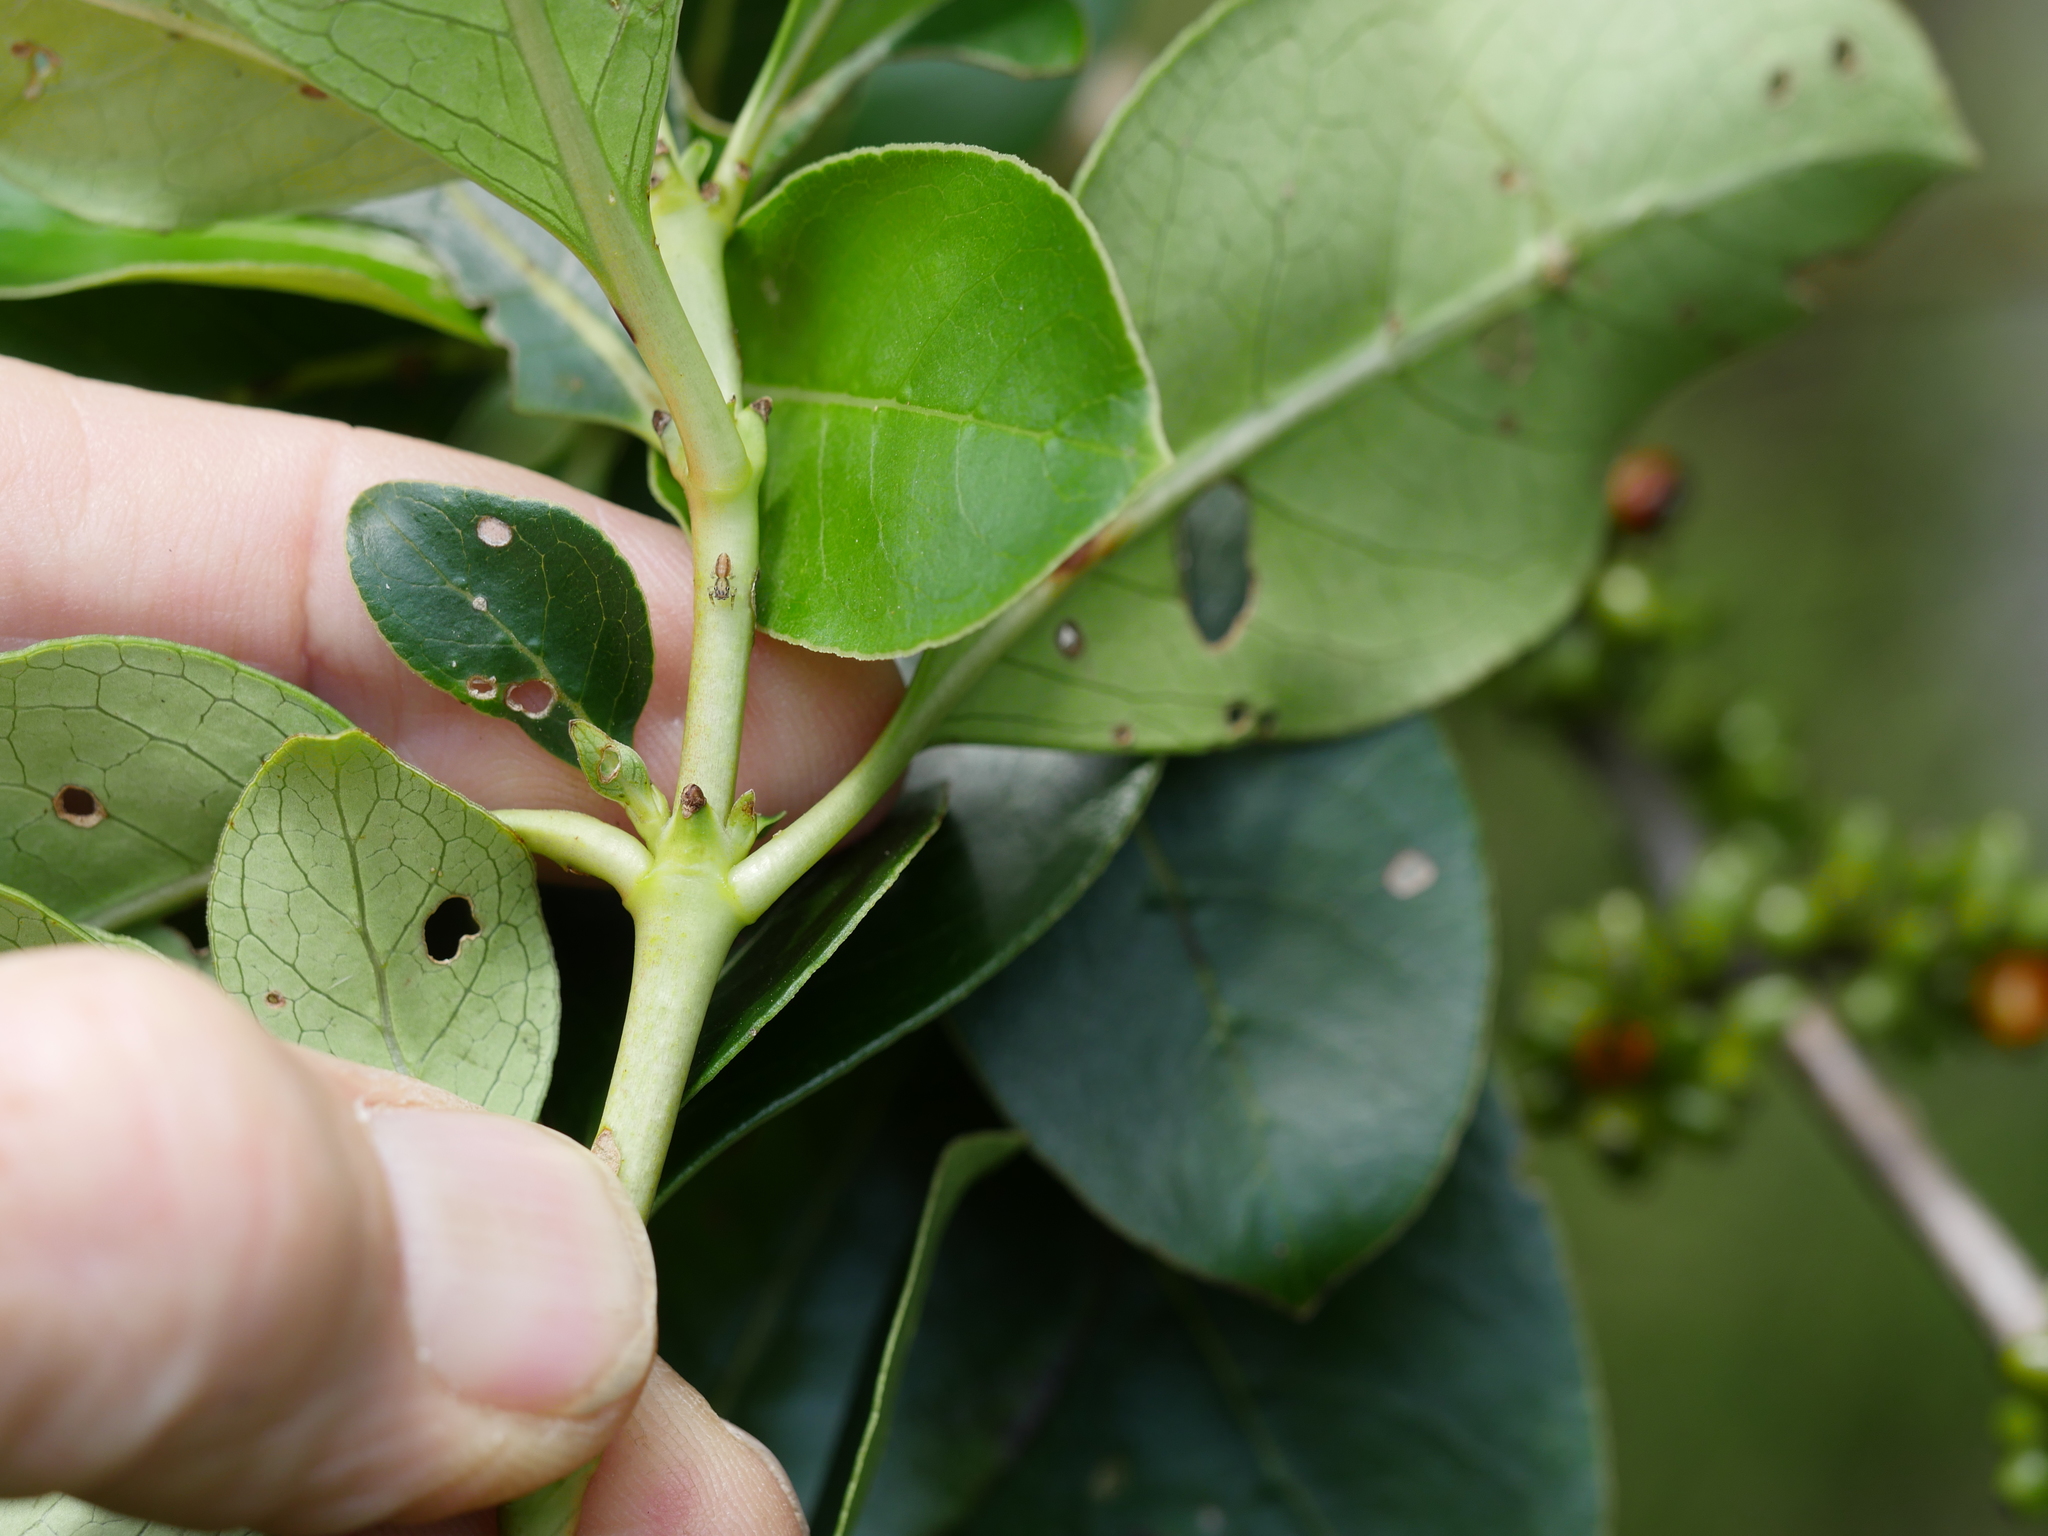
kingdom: Plantae
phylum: Tracheophyta
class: Magnoliopsida
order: Gentianales
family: Rubiaceae
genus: Coprosma
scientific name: Coprosma robusta
